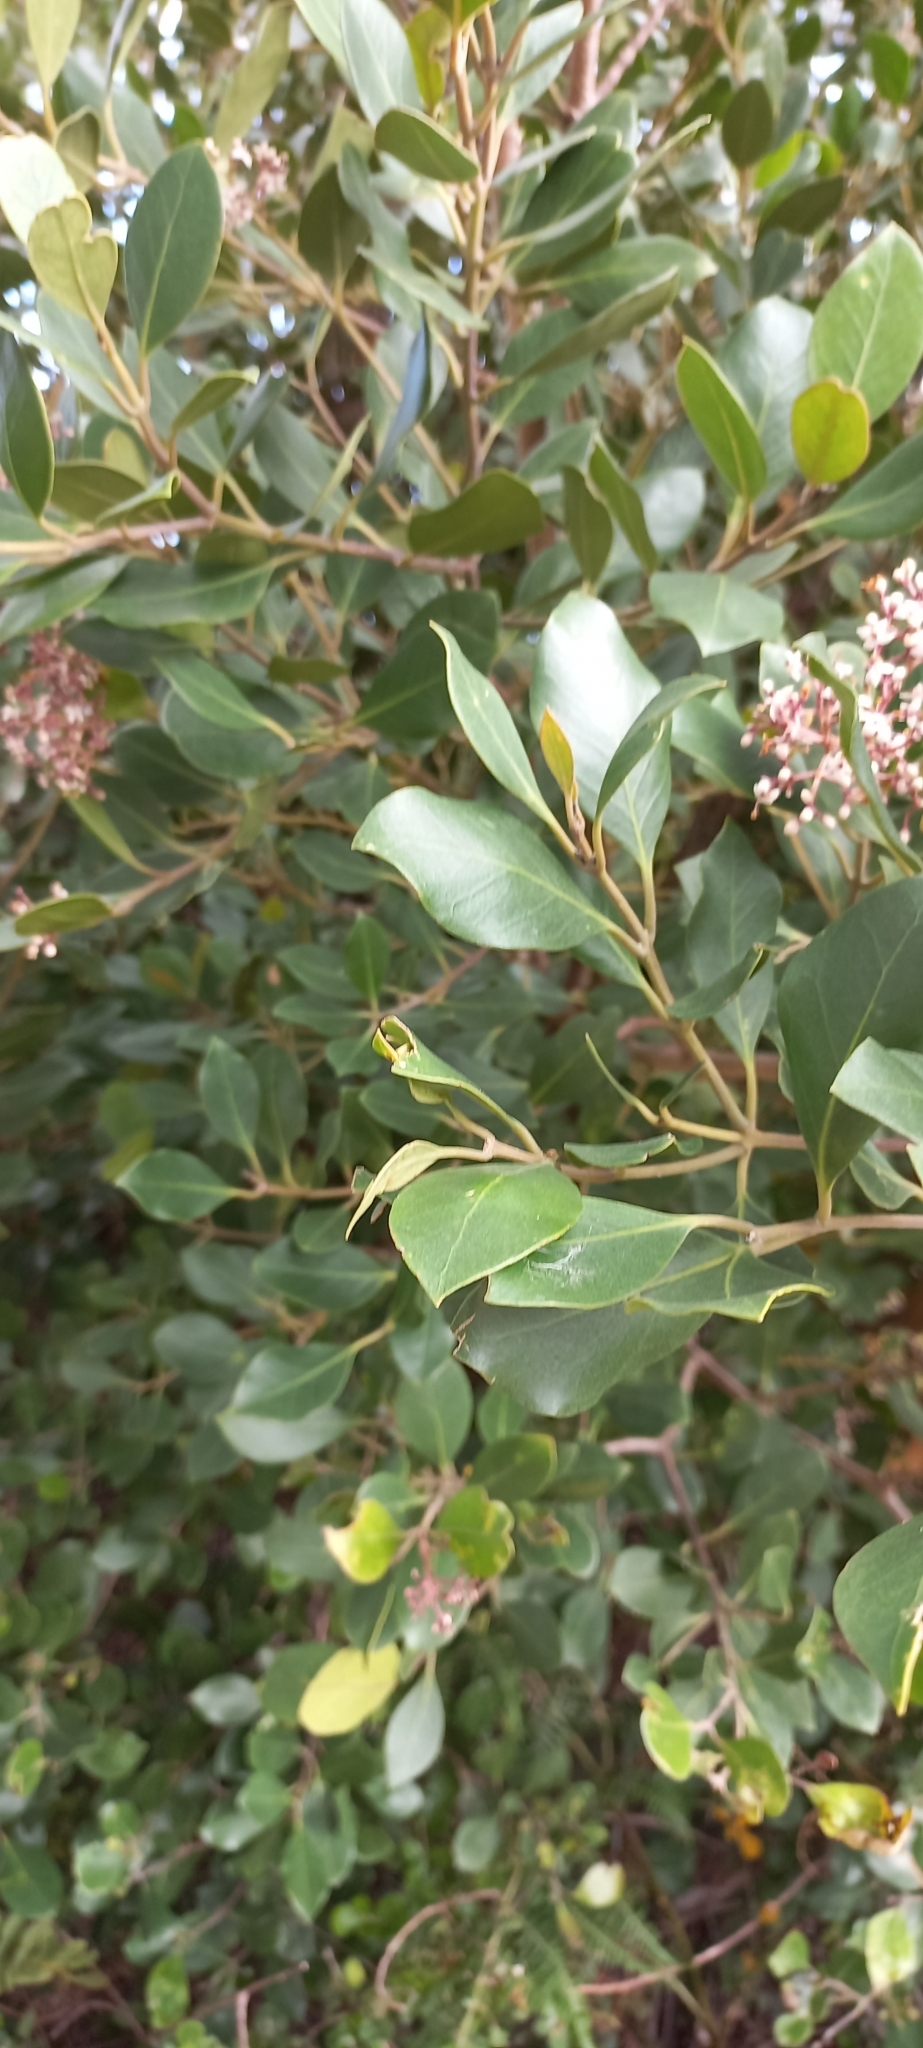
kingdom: Plantae
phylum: Tracheophyta
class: Magnoliopsida
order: Lamiales
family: Oleaceae
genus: Olea
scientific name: Olea capensis
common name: Black ironwood
